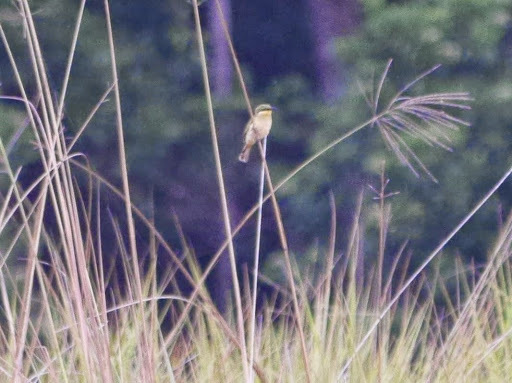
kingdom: Animalia
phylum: Chordata
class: Aves
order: Coraciiformes
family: Meropidae
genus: Merops
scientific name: Merops variegatus
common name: Blue-breasted bee-eater
